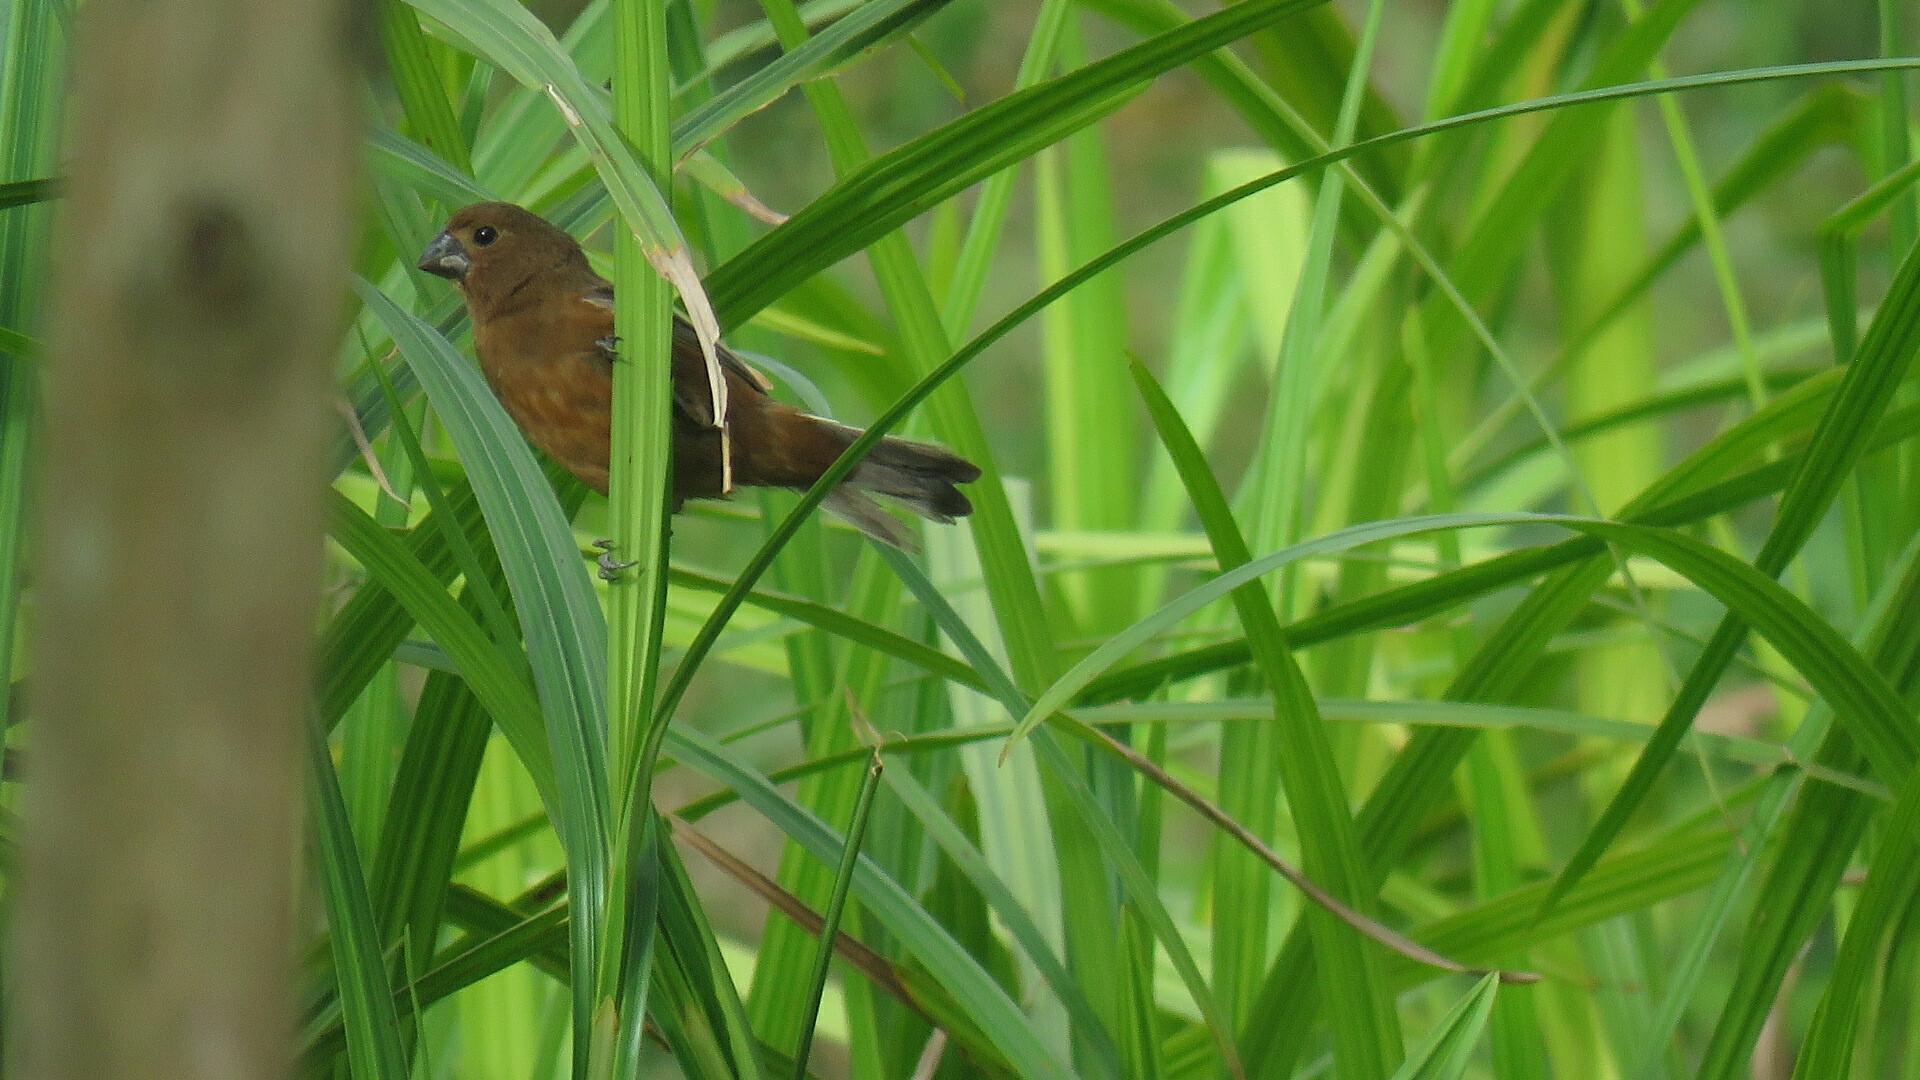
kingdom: Animalia
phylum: Chordata
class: Aves
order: Passeriformes
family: Thraupidae
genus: Sporophila
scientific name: Sporophila funerea
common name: Thick-billed seed-finch
